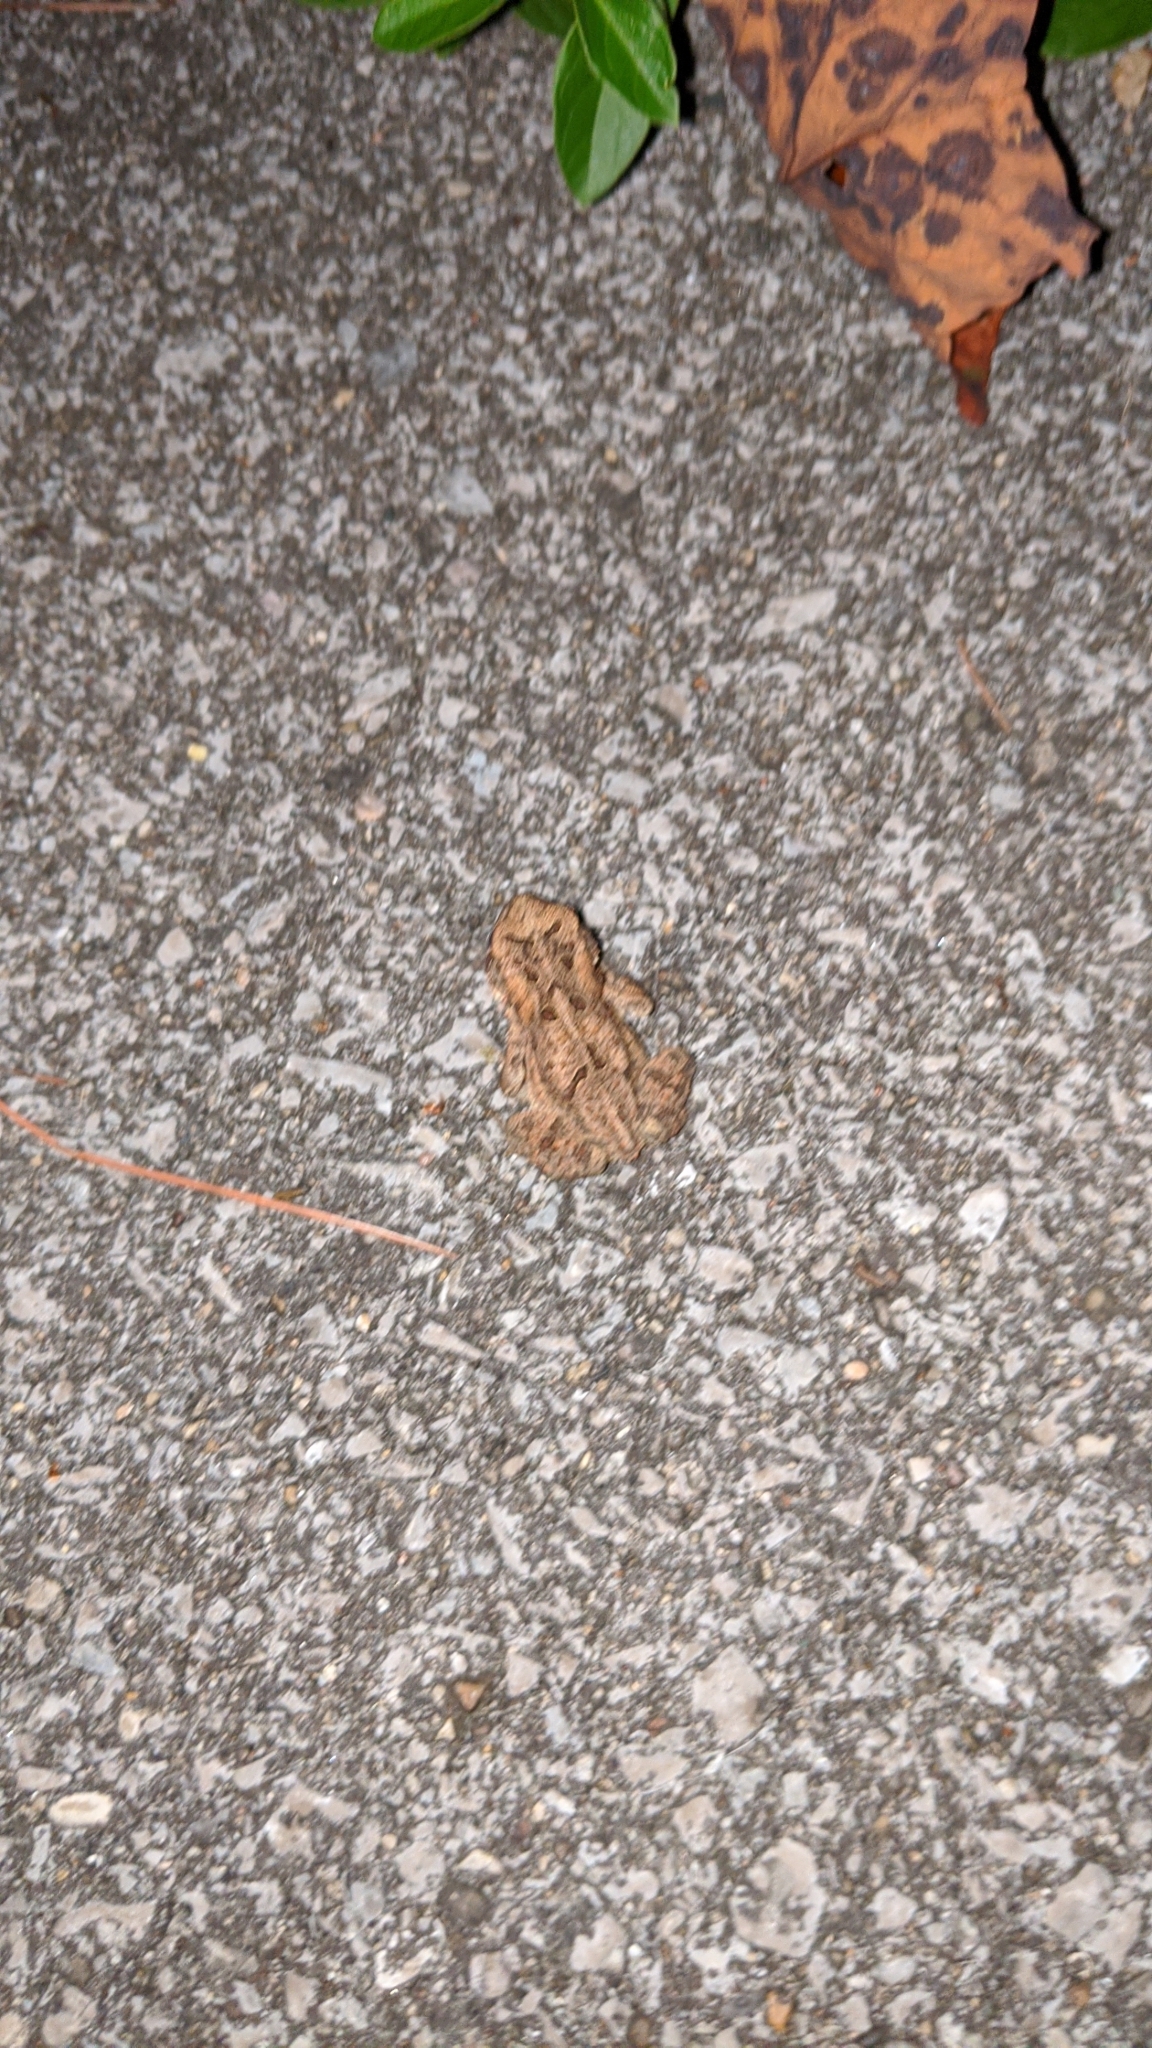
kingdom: Animalia
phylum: Chordata
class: Amphibia
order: Anura
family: Bufonidae
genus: Anaxyrus
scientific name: Anaxyrus americanus
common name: American toad
